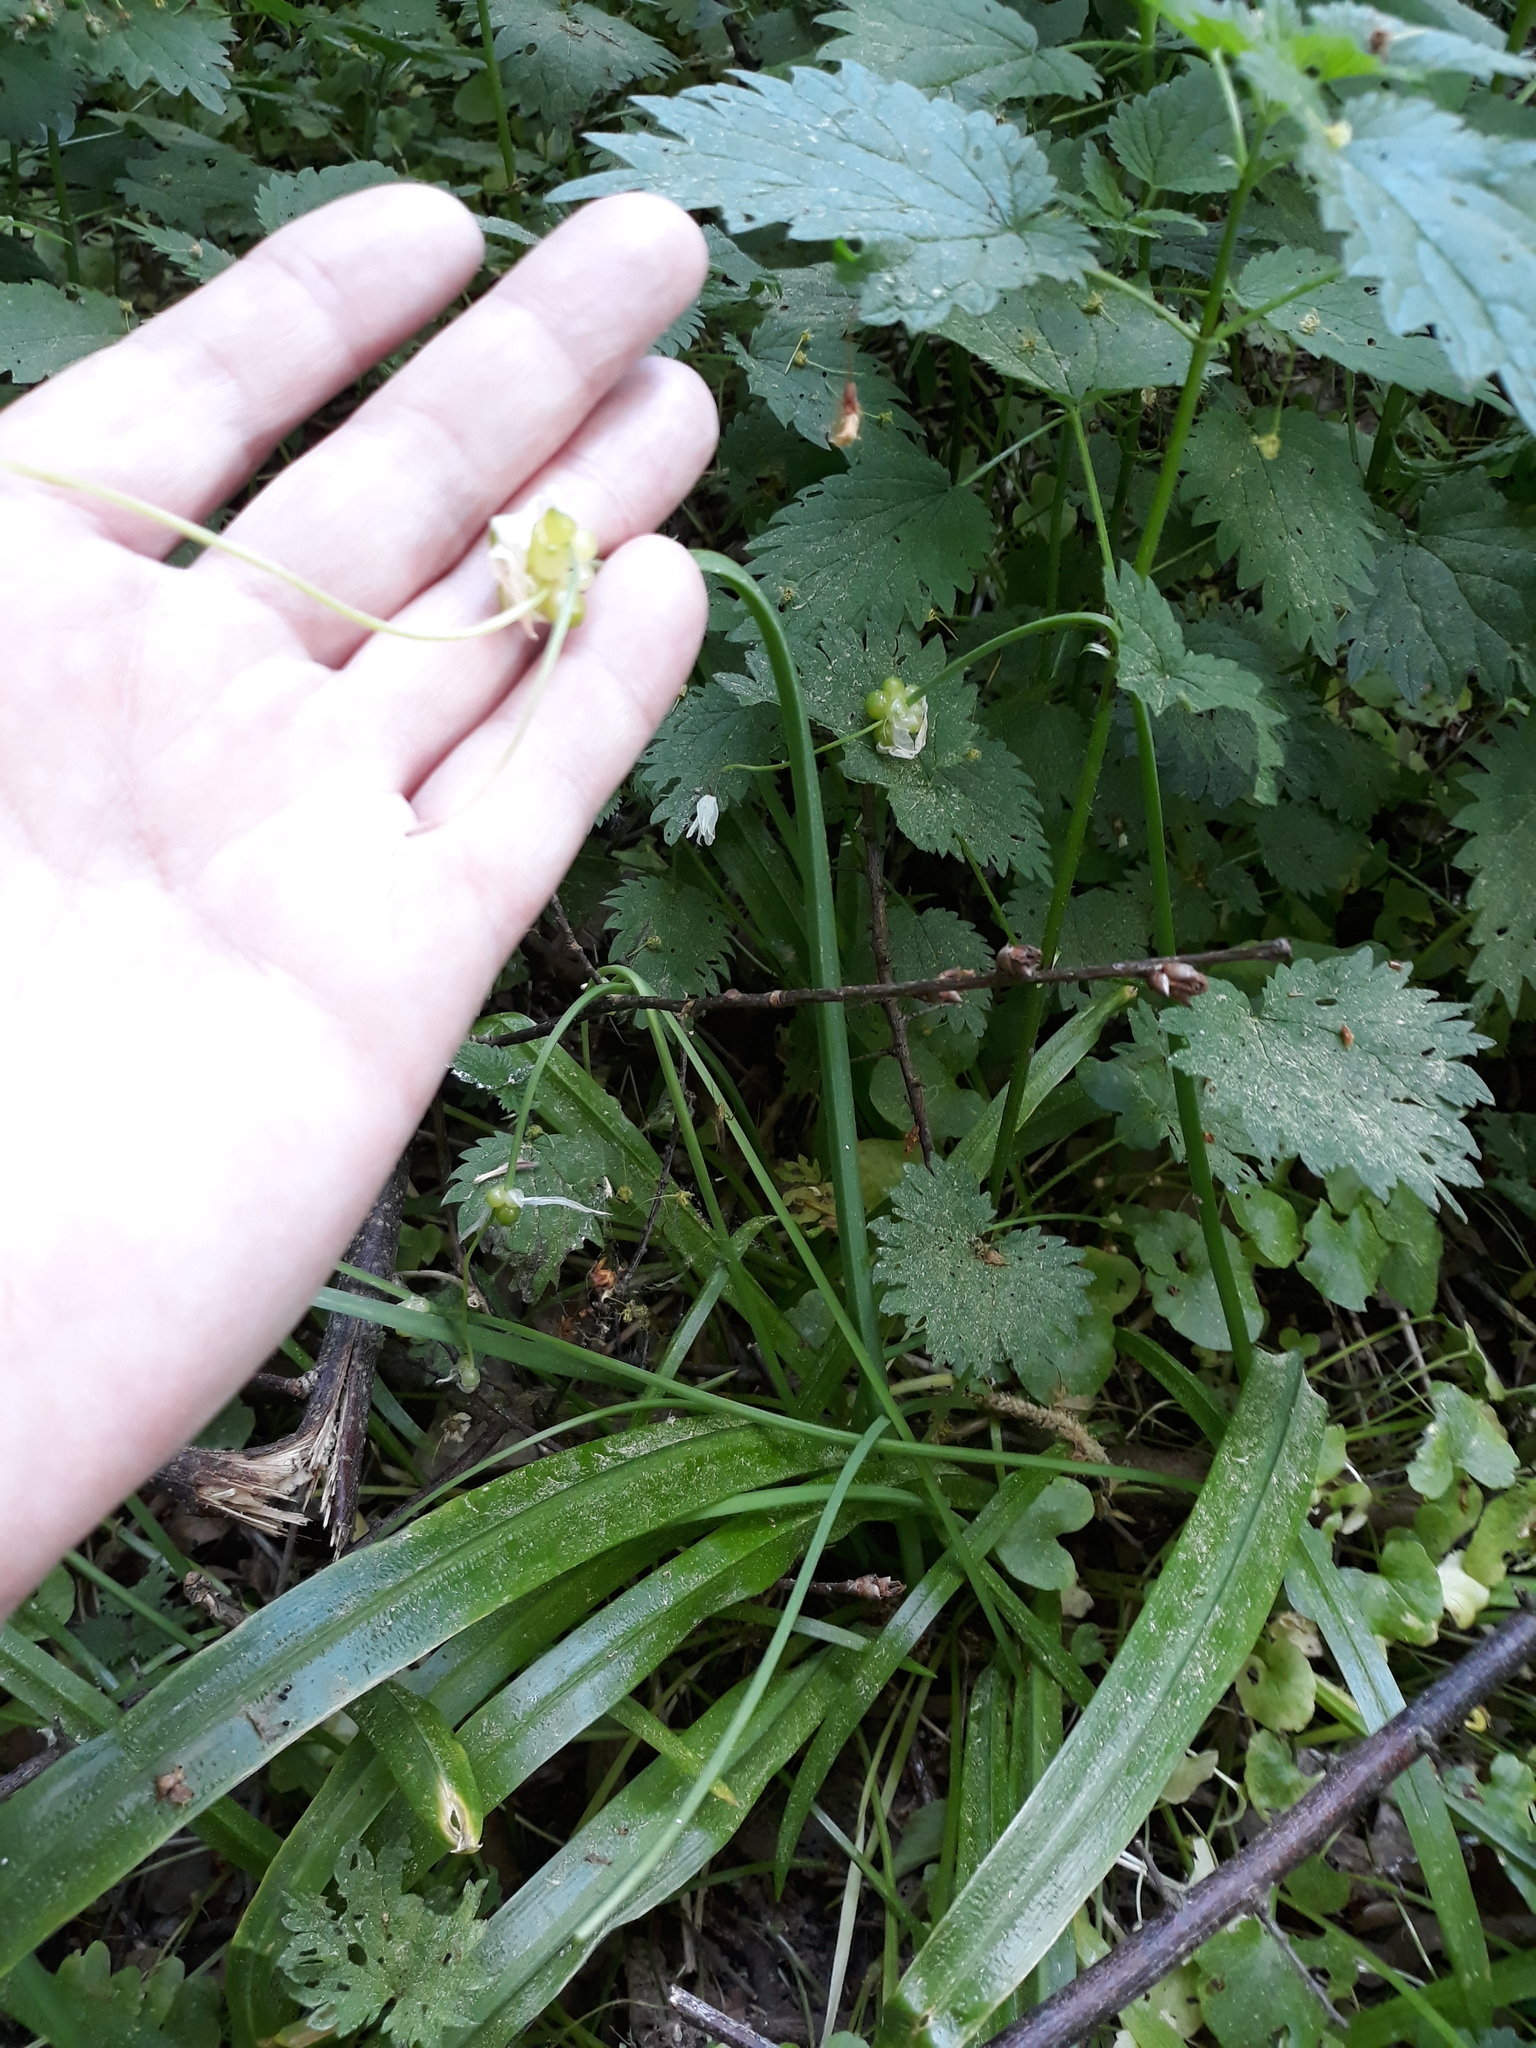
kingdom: Plantae
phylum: Tracheophyta
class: Liliopsida
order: Asparagales
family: Amaryllidaceae
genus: Allium
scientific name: Allium paradoxum
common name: Few-flowered garlic
